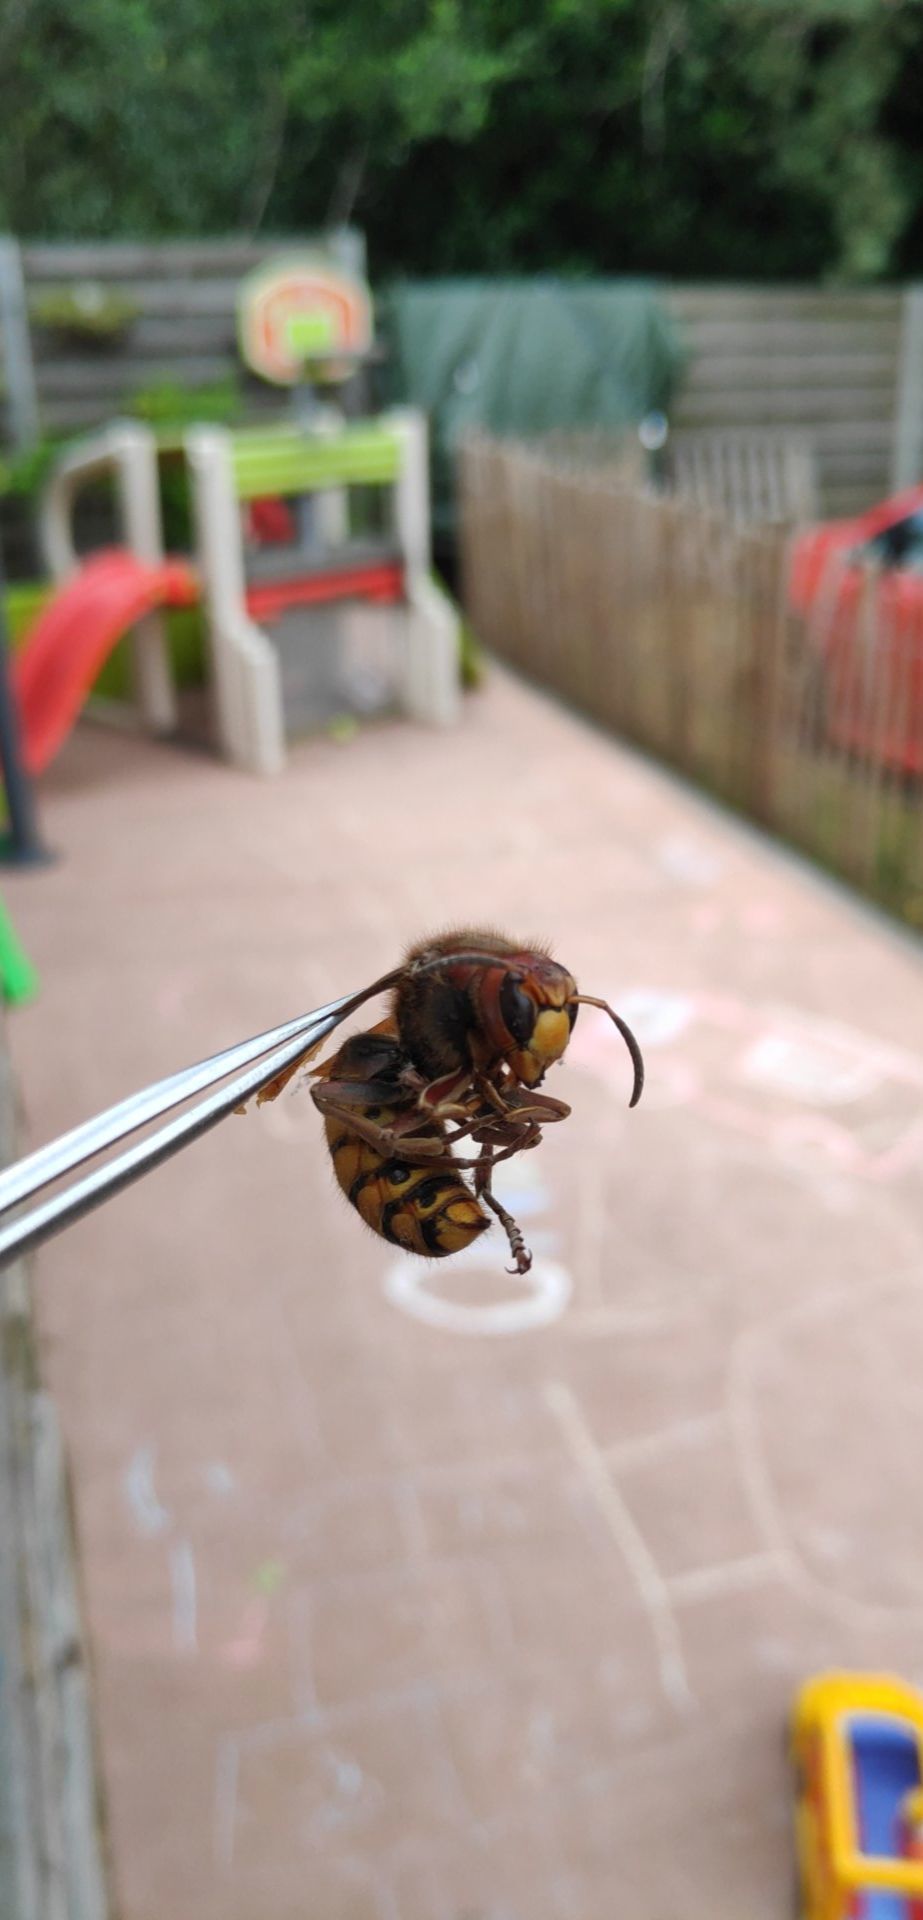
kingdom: Animalia
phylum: Arthropoda
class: Insecta
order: Hymenoptera
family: Vespidae
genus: Vespa
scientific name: Vespa crabro
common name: Hornet
